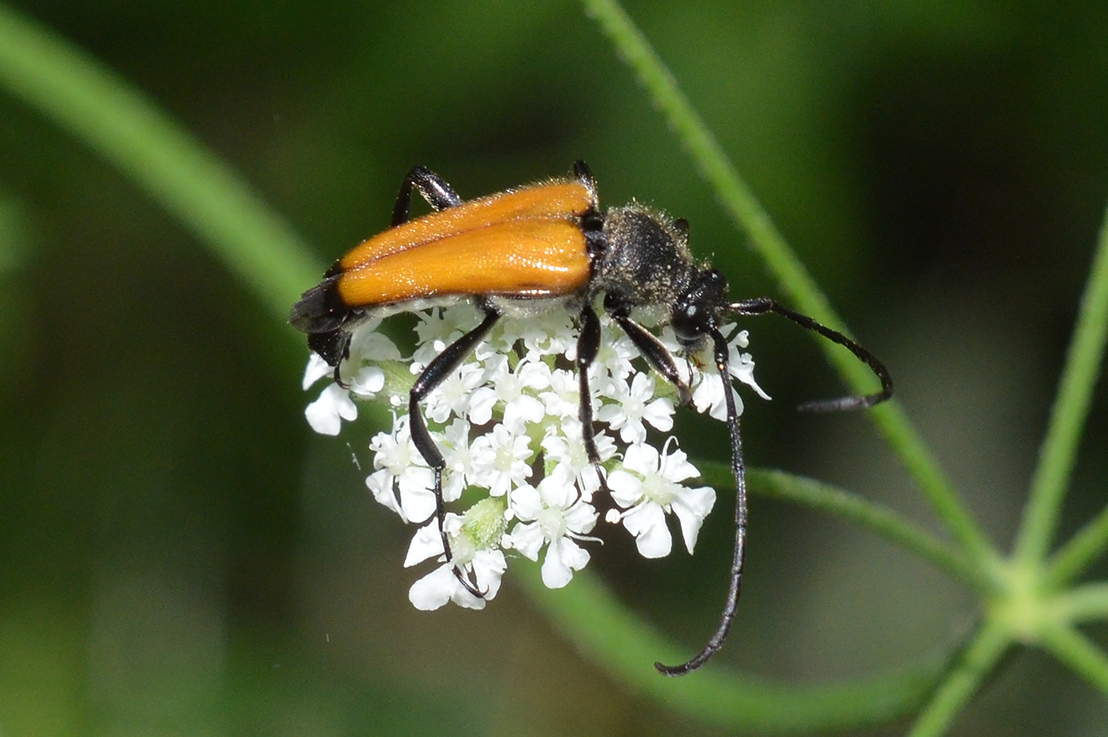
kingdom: Animalia
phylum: Arthropoda
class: Insecta
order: Coleoptera
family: Cerambycidae
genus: Paracorymbia
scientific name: Paracorymbia fulva
